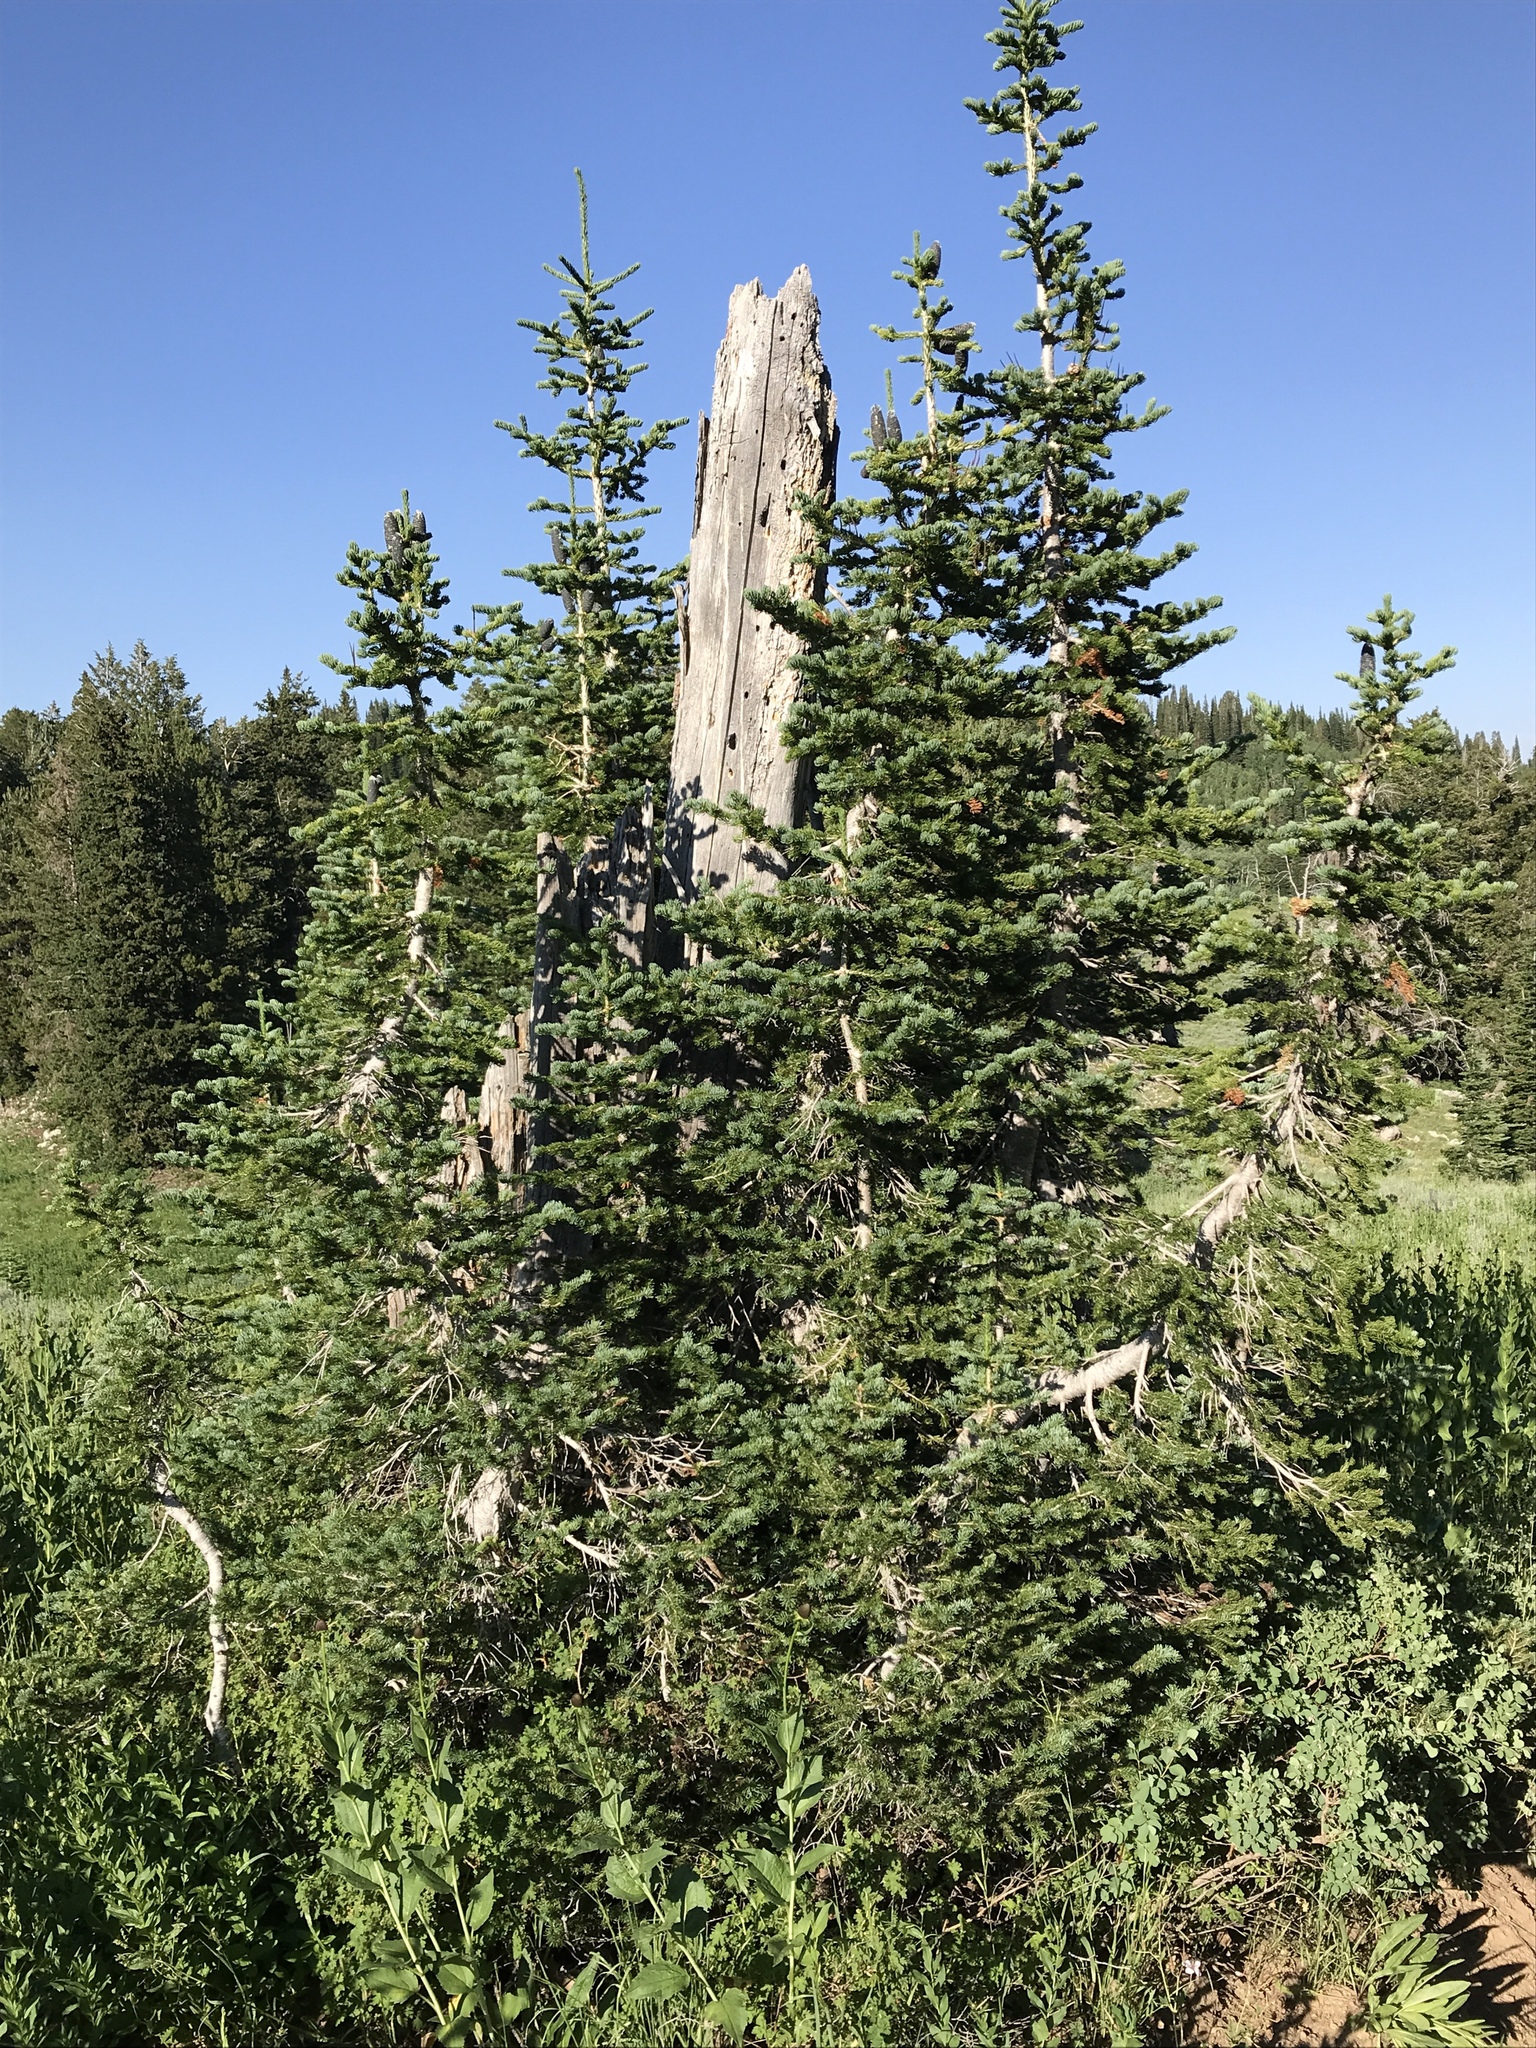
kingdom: Plantae
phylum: Tracheophyta
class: Pinopsida
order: Pinales
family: Pinaceae
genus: Abies
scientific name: Abies lasiocarpa
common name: Subalpine fir
